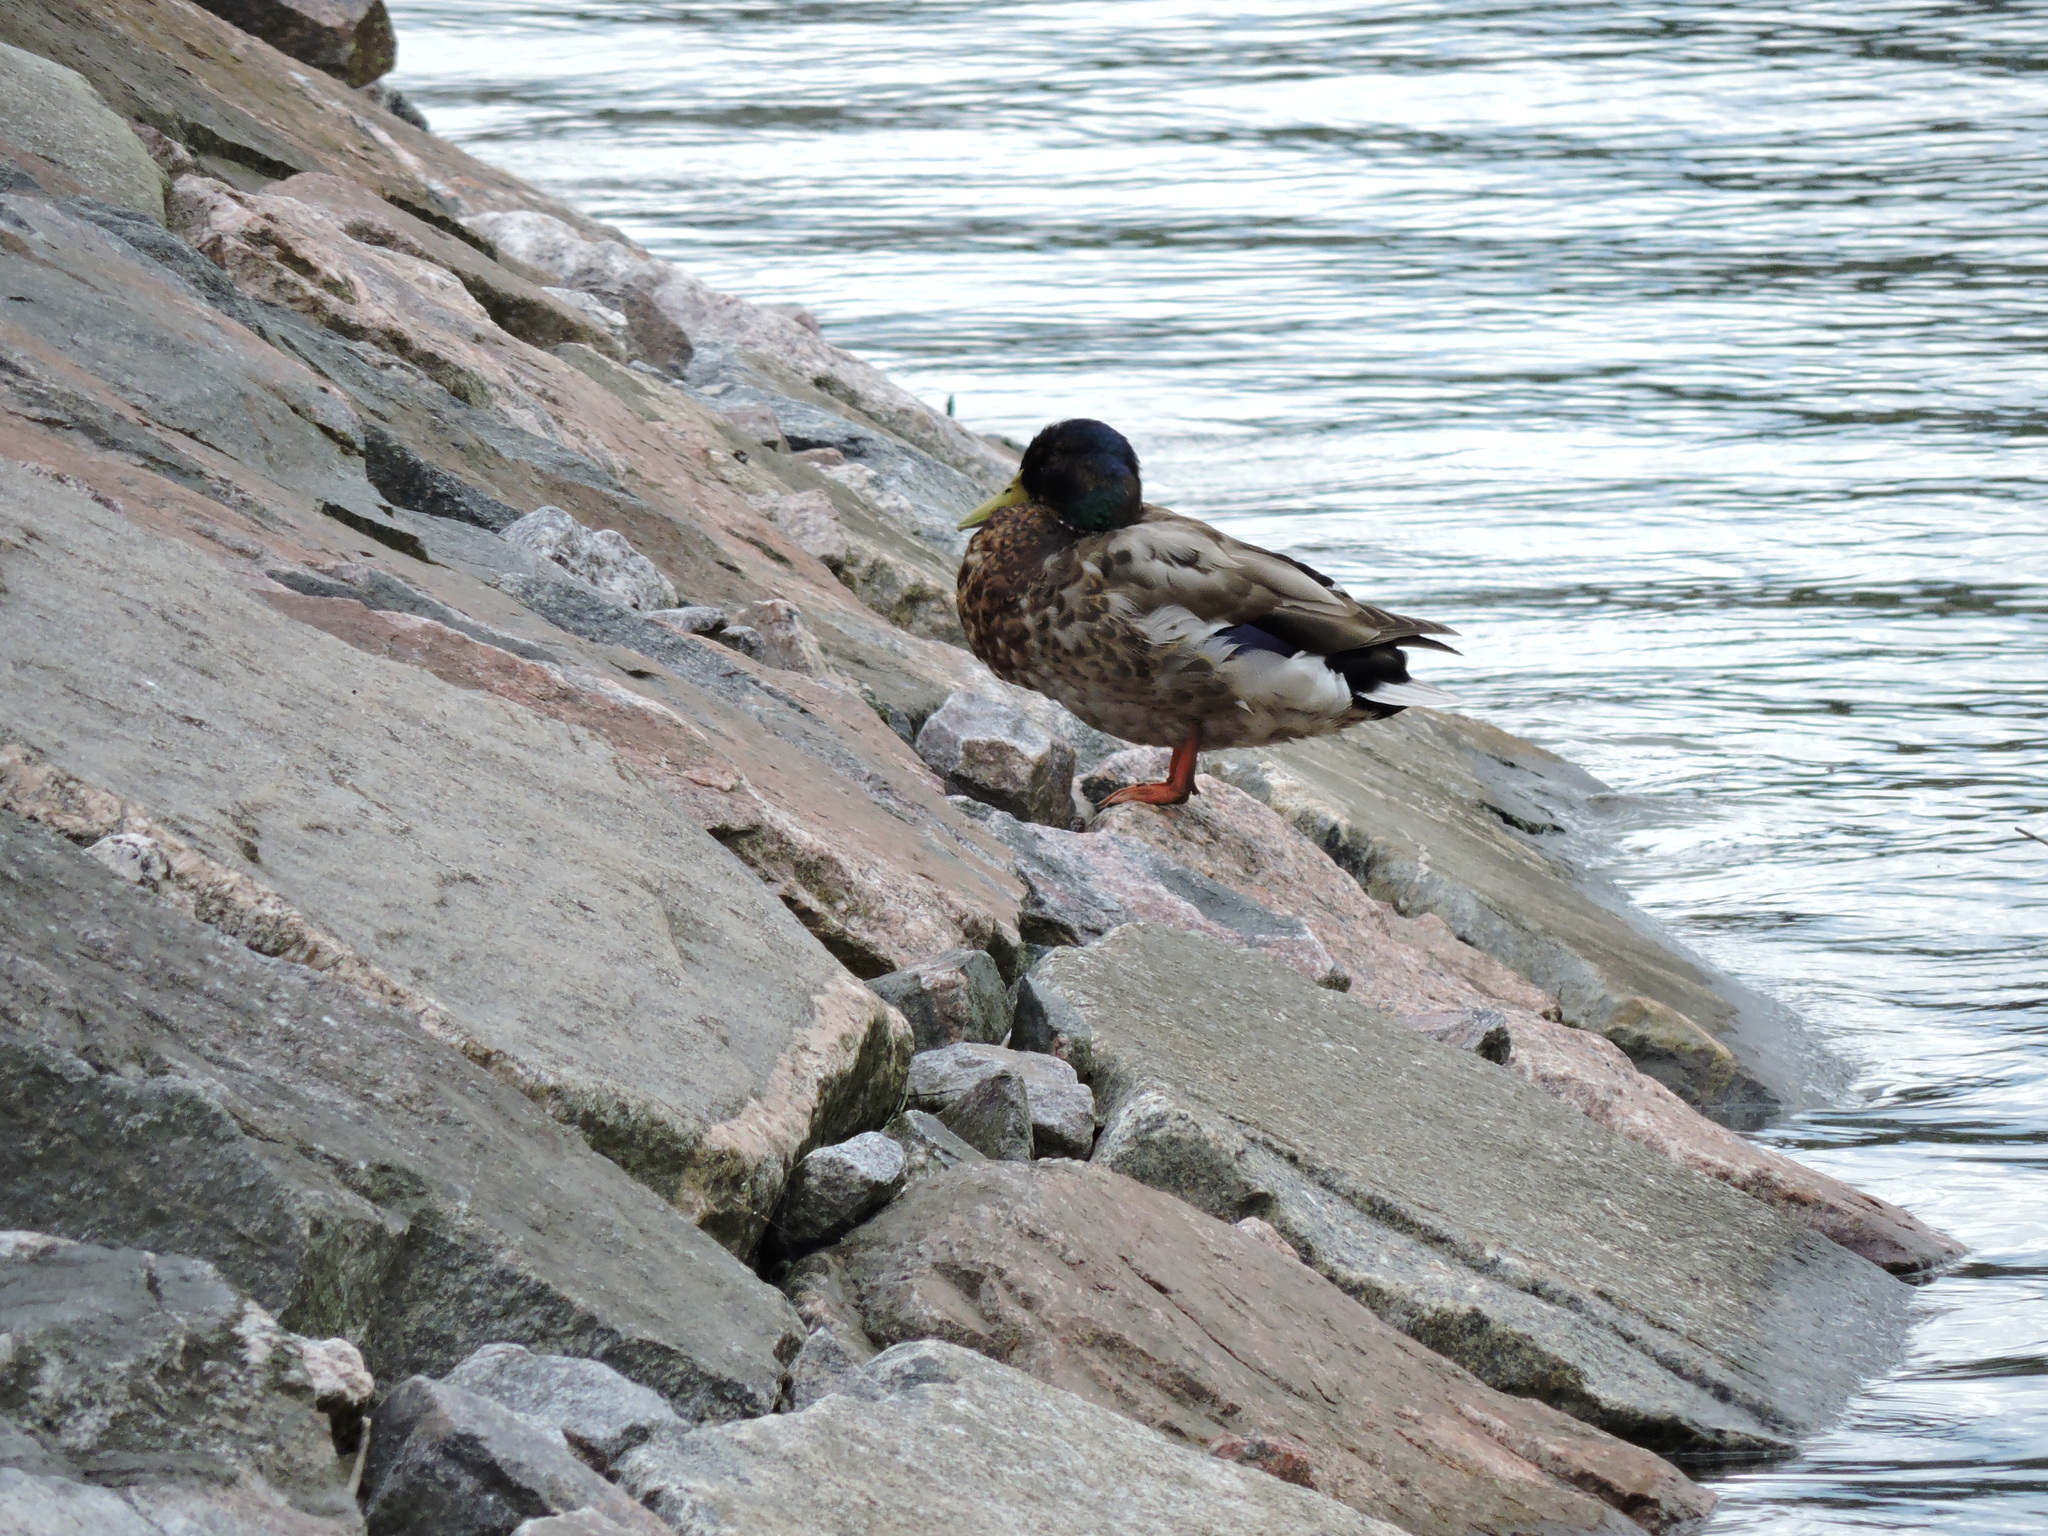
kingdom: Animalia
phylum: Chordata
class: Aves
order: Anseriformes
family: Anatidae
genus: Anas
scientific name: Anas platyrhynchos
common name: Mallard
